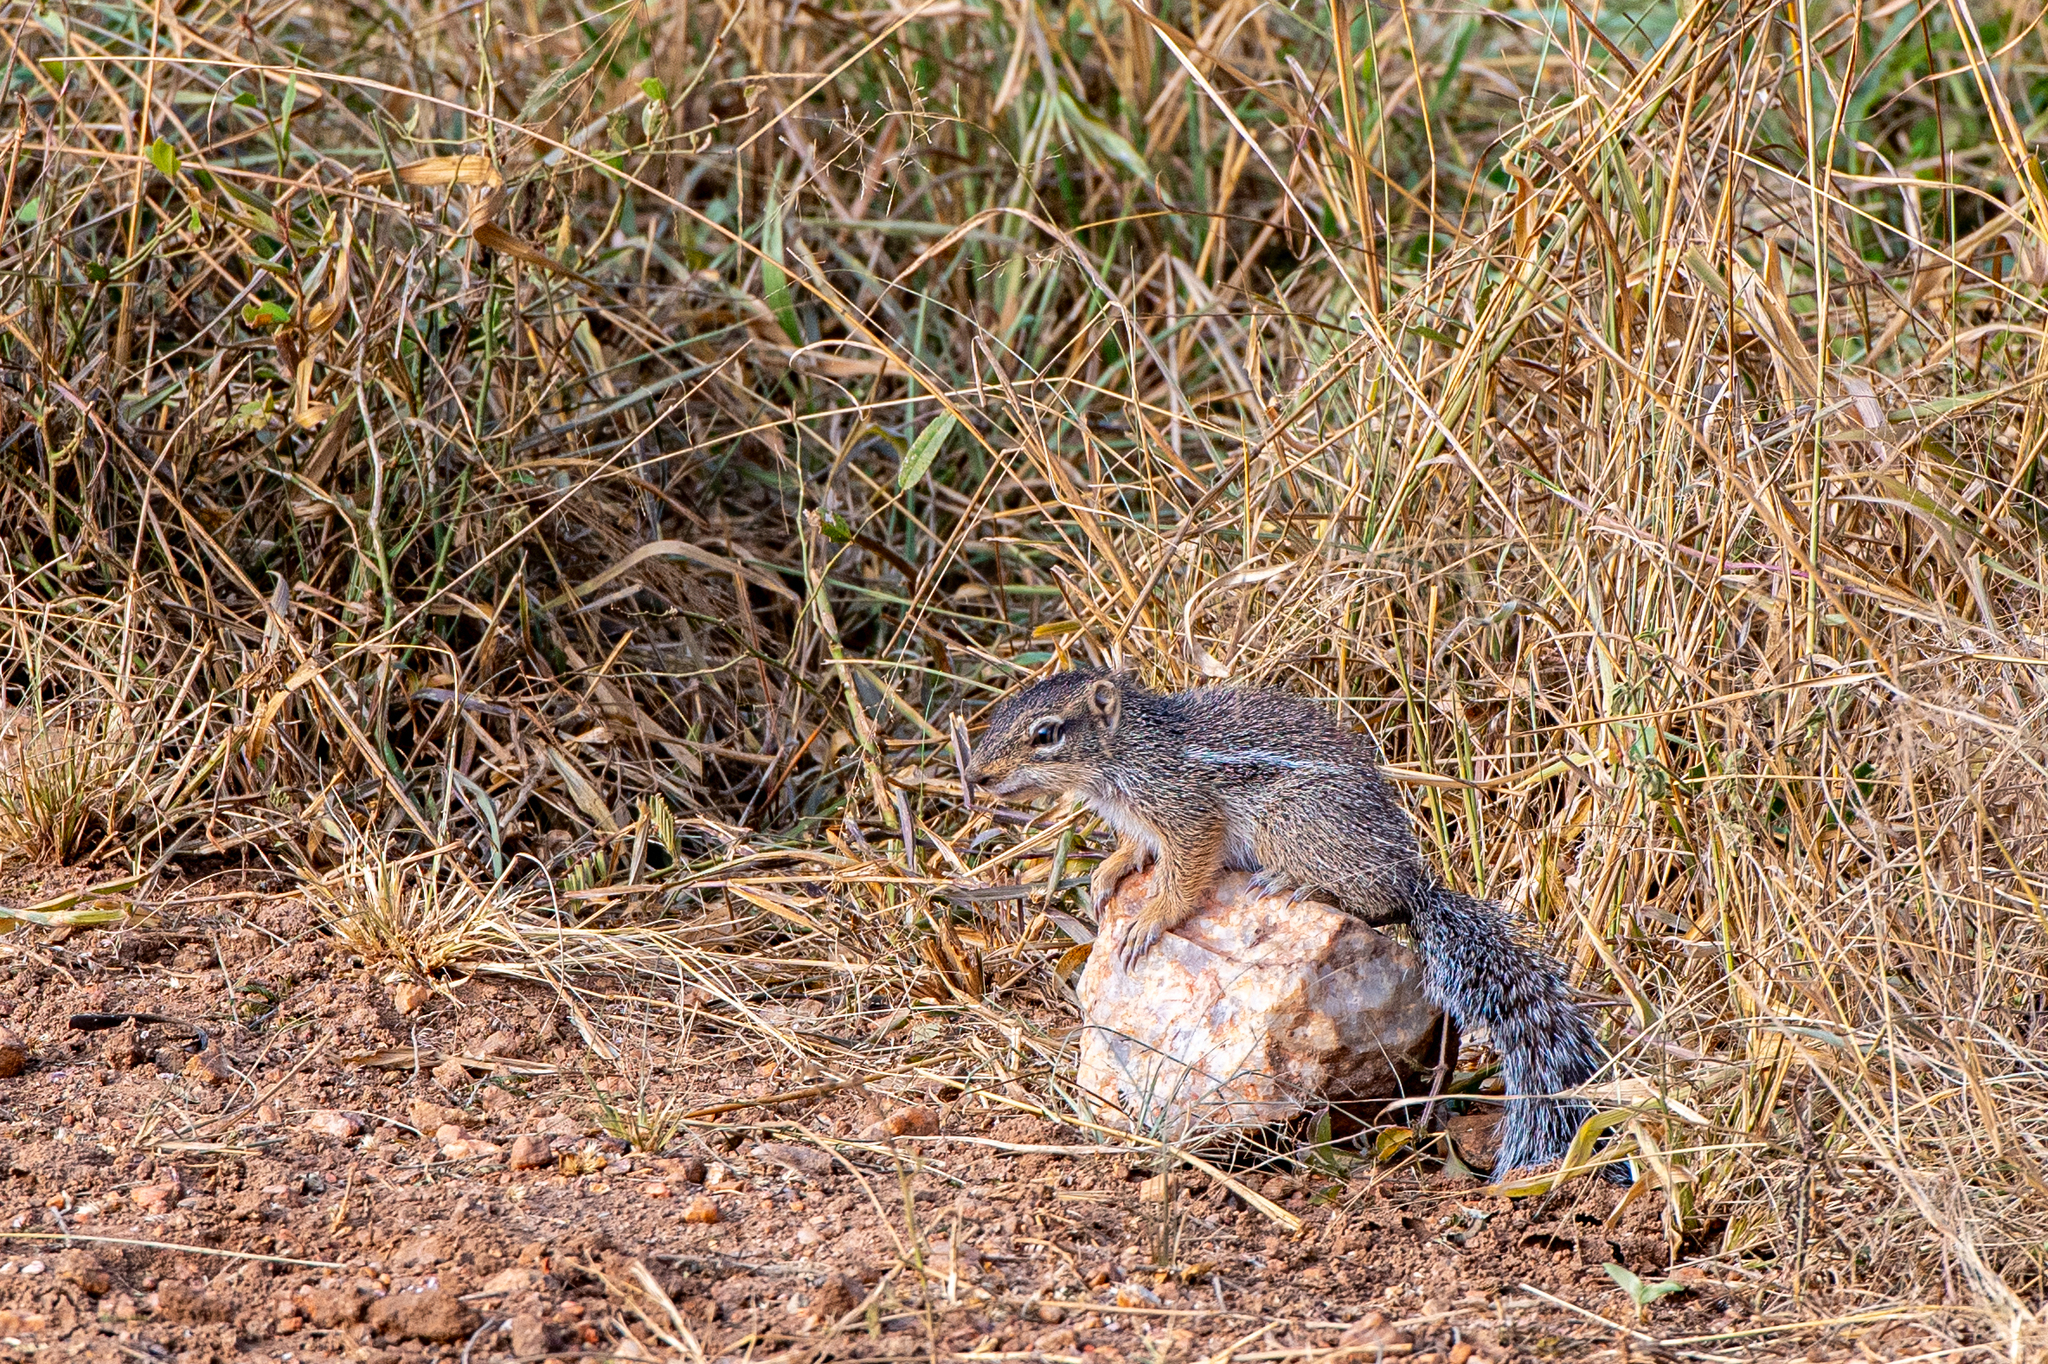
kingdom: Animalia
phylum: Chordata
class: Mammalia
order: Rodentia
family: Sciuridae
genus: Xerus
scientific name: Xerus erythropus
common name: Striped ground squirrel
